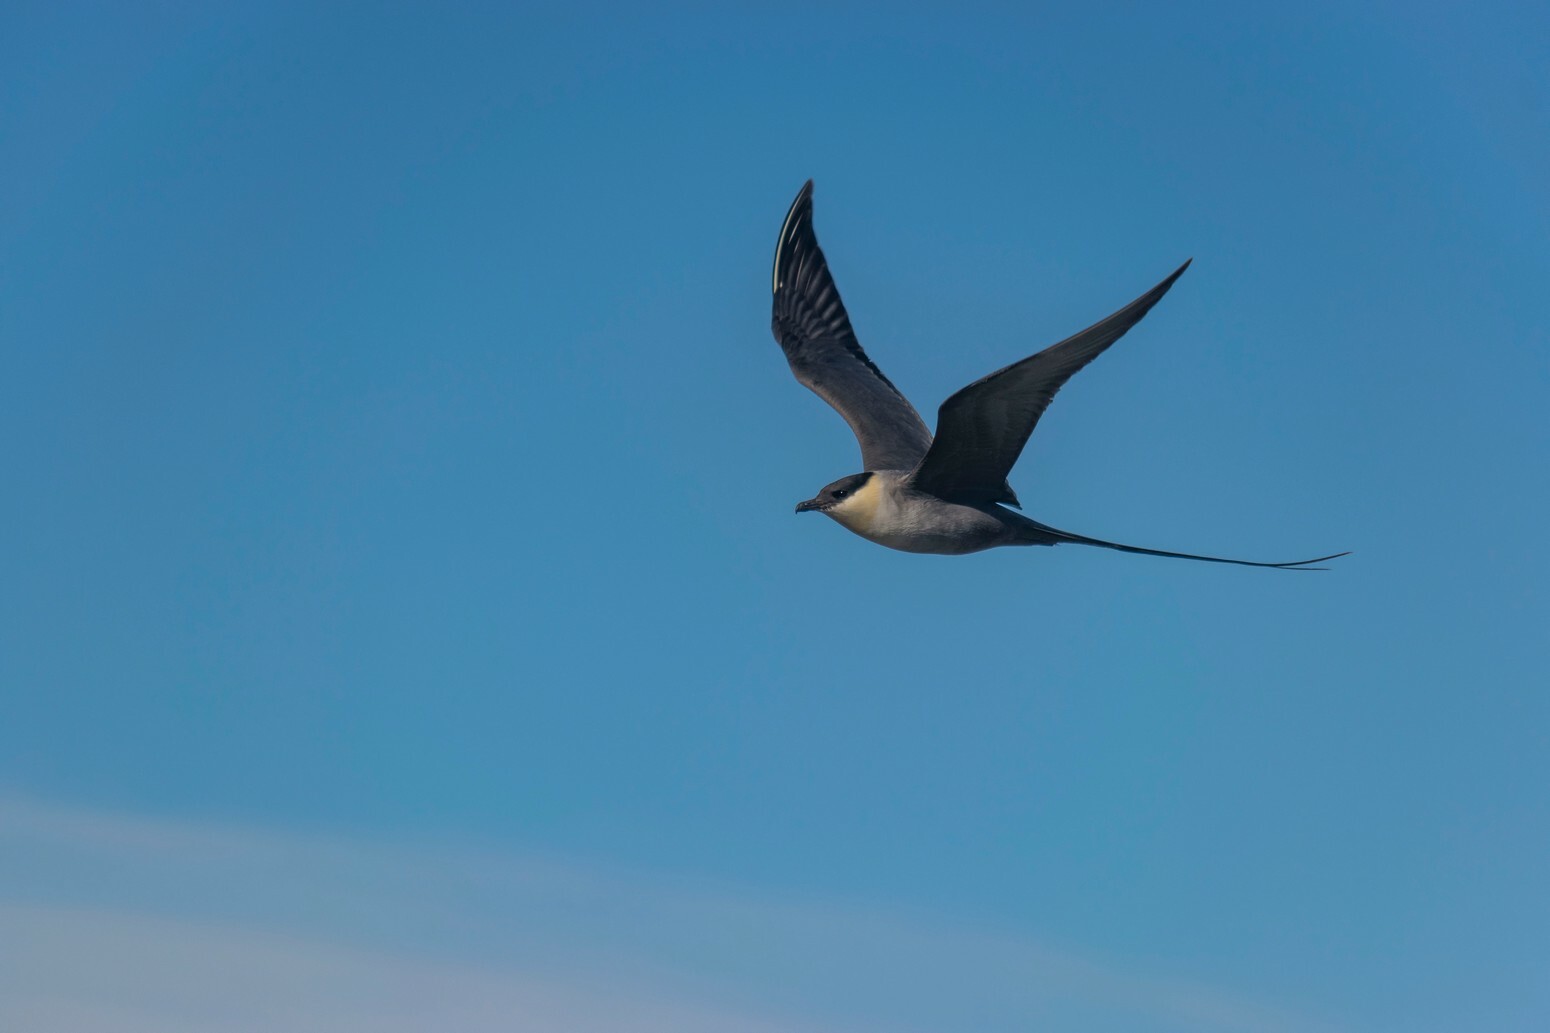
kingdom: Animalia
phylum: Chordata
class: Aves
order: Charadriiformes
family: Stercorariidae
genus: Stercorarius
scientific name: Stercorarius longicaudus
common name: Long-tailed jaeger
